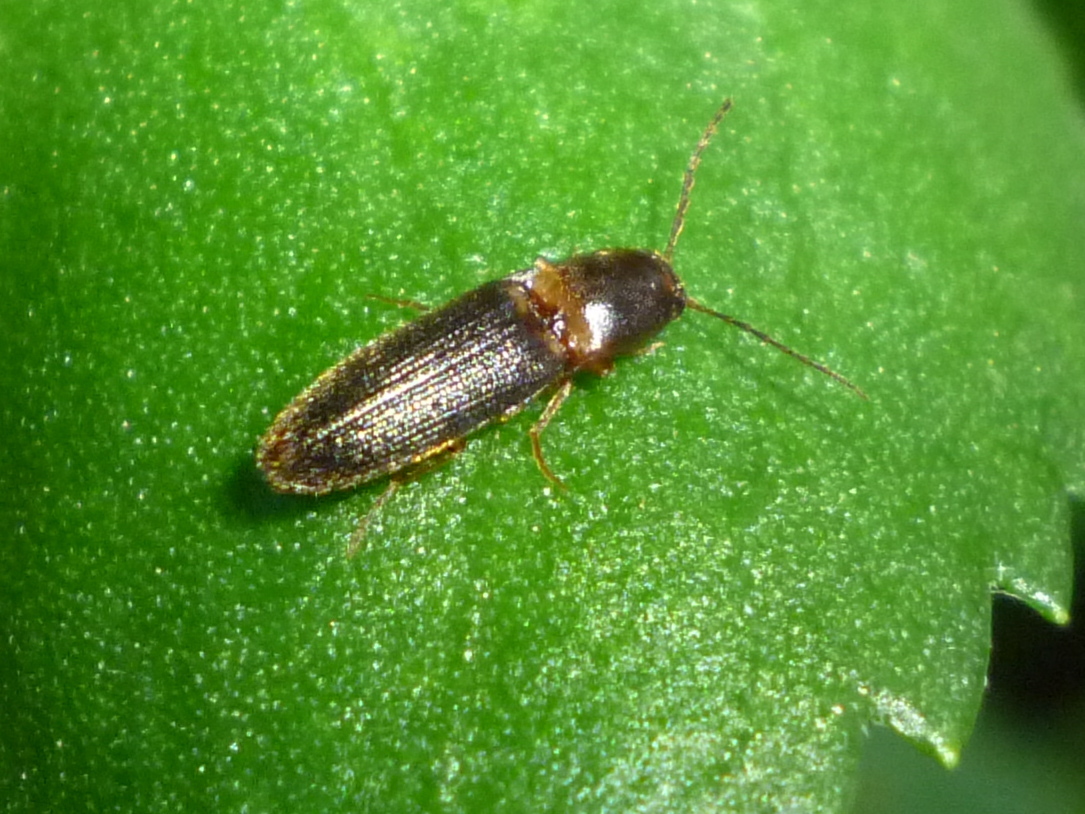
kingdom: Animalia
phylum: Arthropoda
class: Insecta
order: Coleoptera
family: Elateridae
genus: Megapenthes
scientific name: Megapenthes
